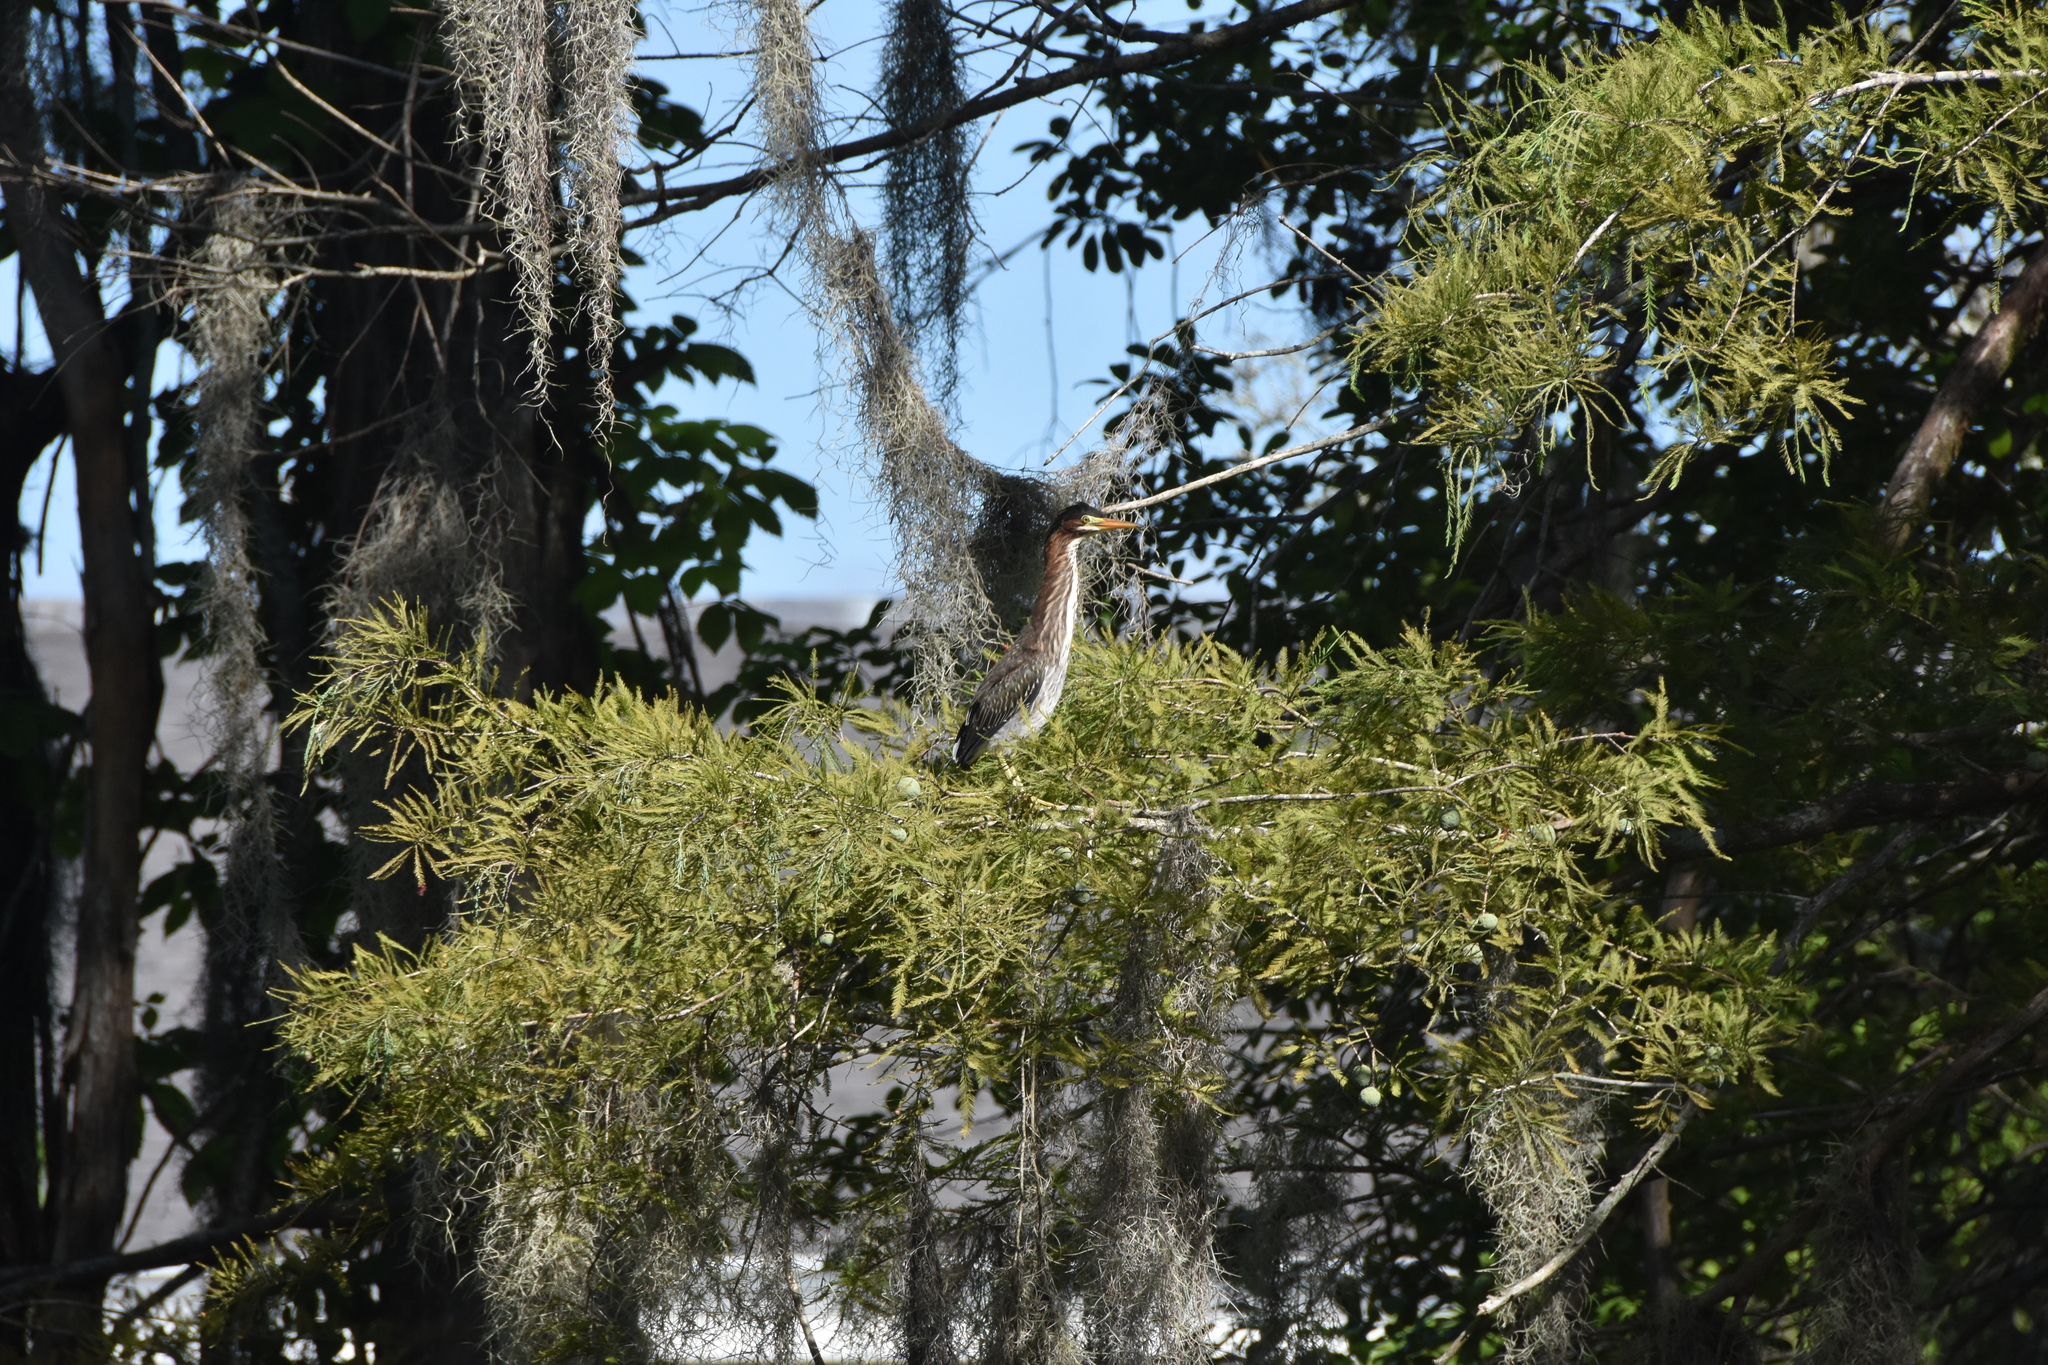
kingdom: Animalia
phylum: Chordata
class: Aves
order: Pelecaniformes
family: Ardeidae
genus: Butorides
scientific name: Butorides virescens
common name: Green heron
